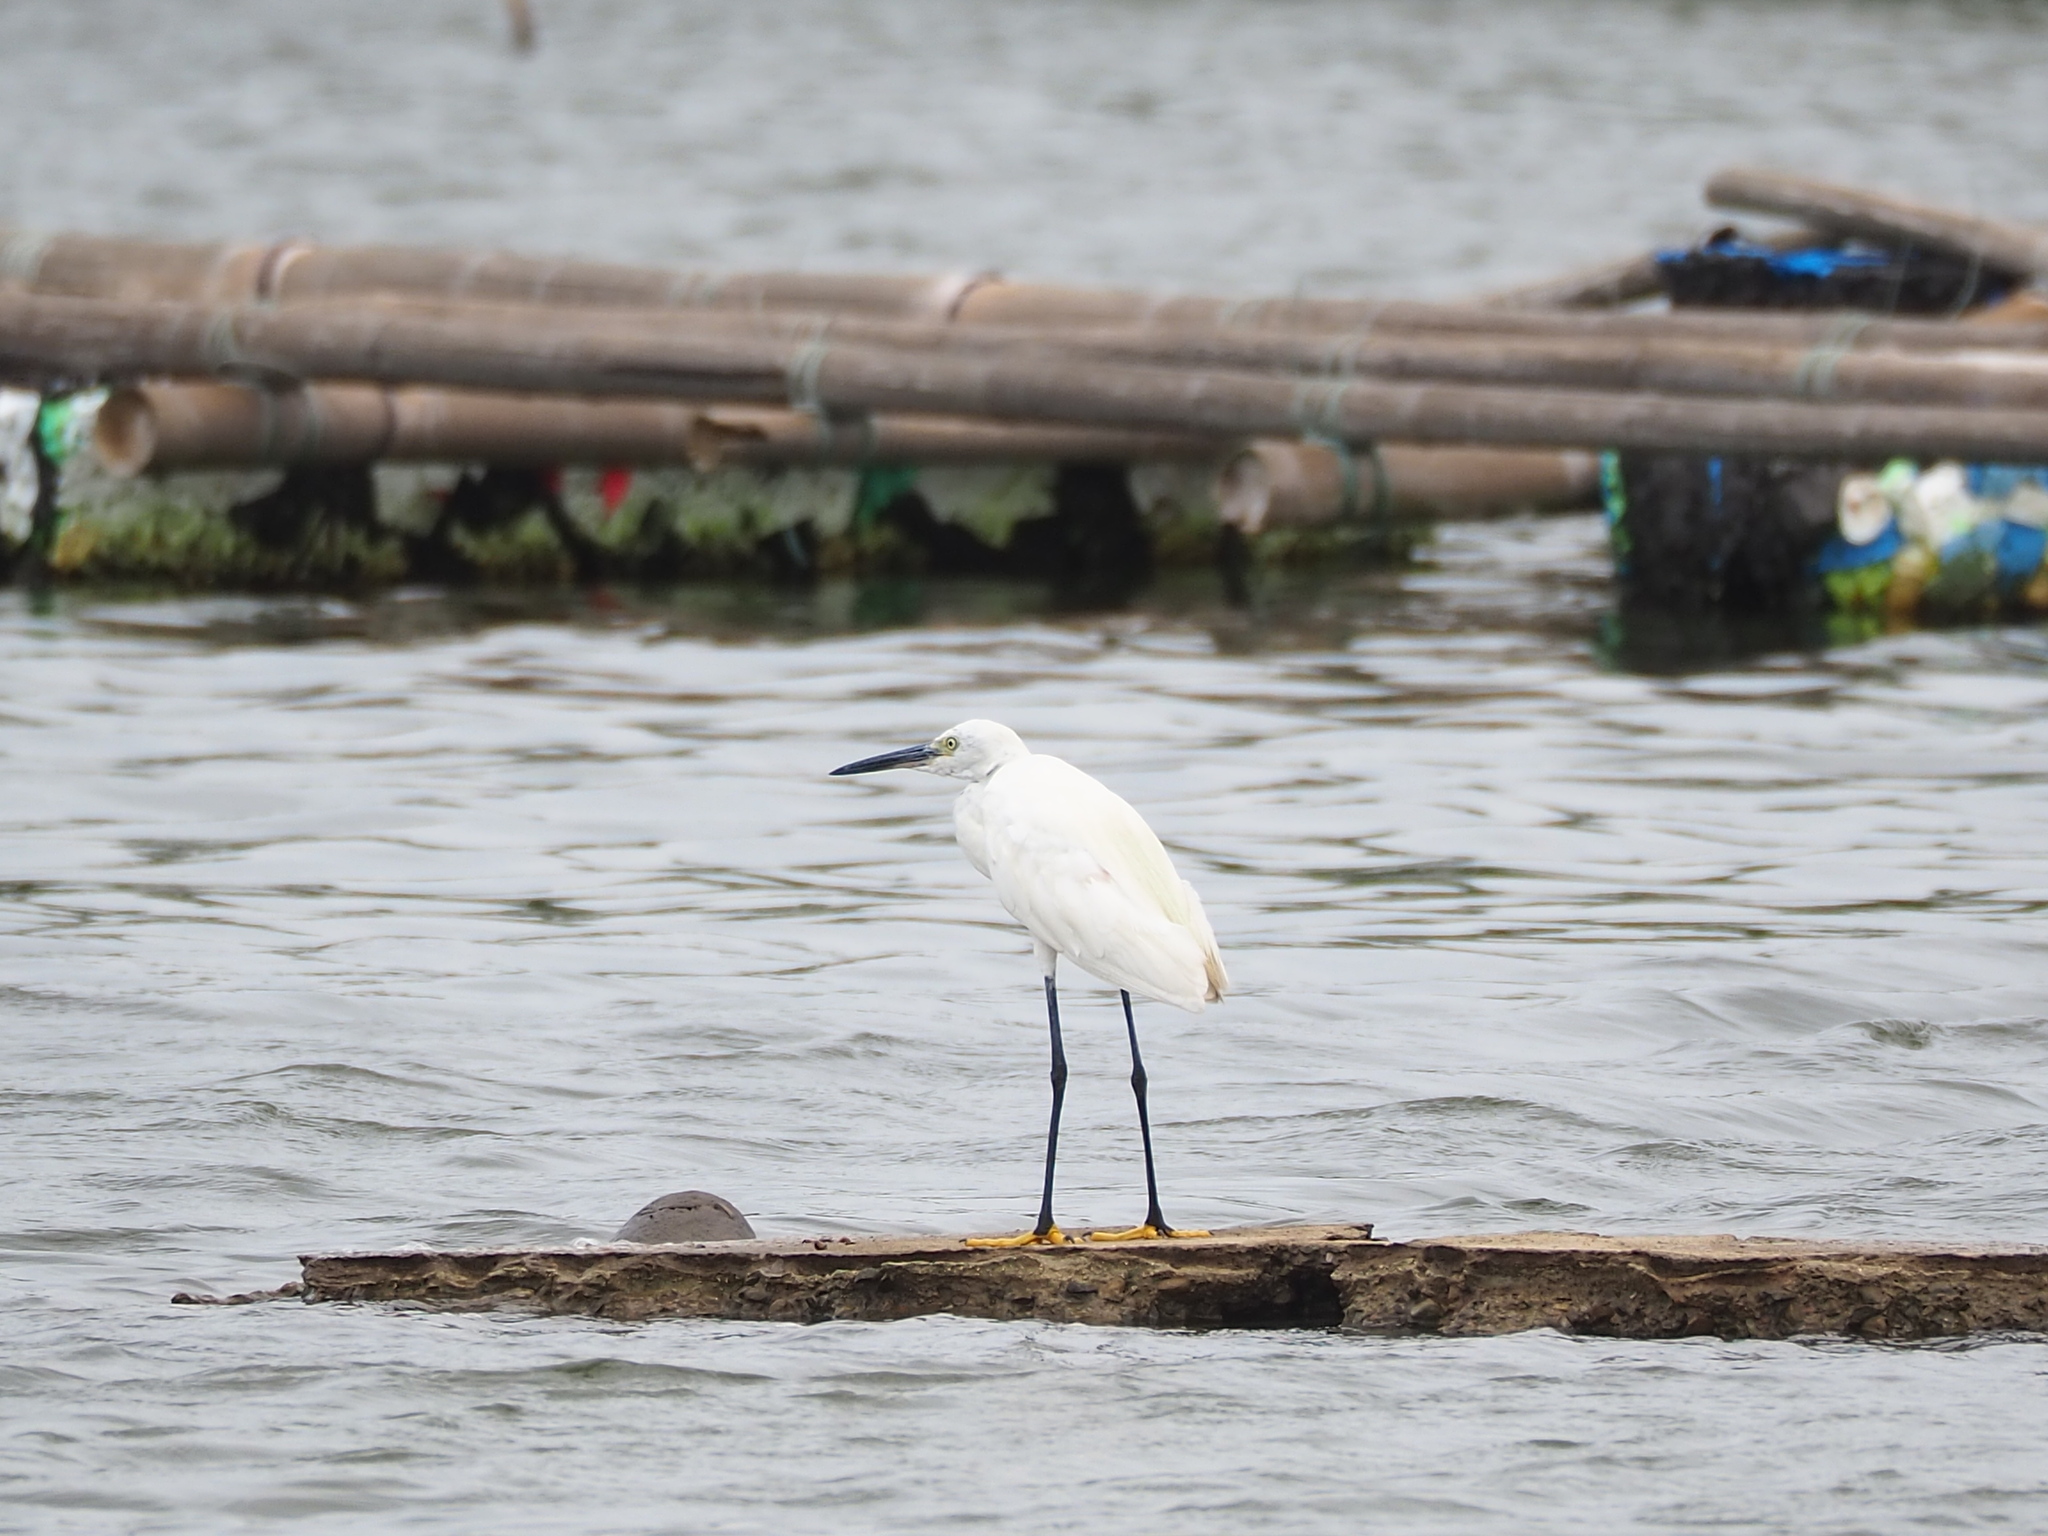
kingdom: Animalia
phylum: Chordata
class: Aves
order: Pelecaniformes
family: Ardeidae
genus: Egretta
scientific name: Egretta garzetta
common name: Little egret
